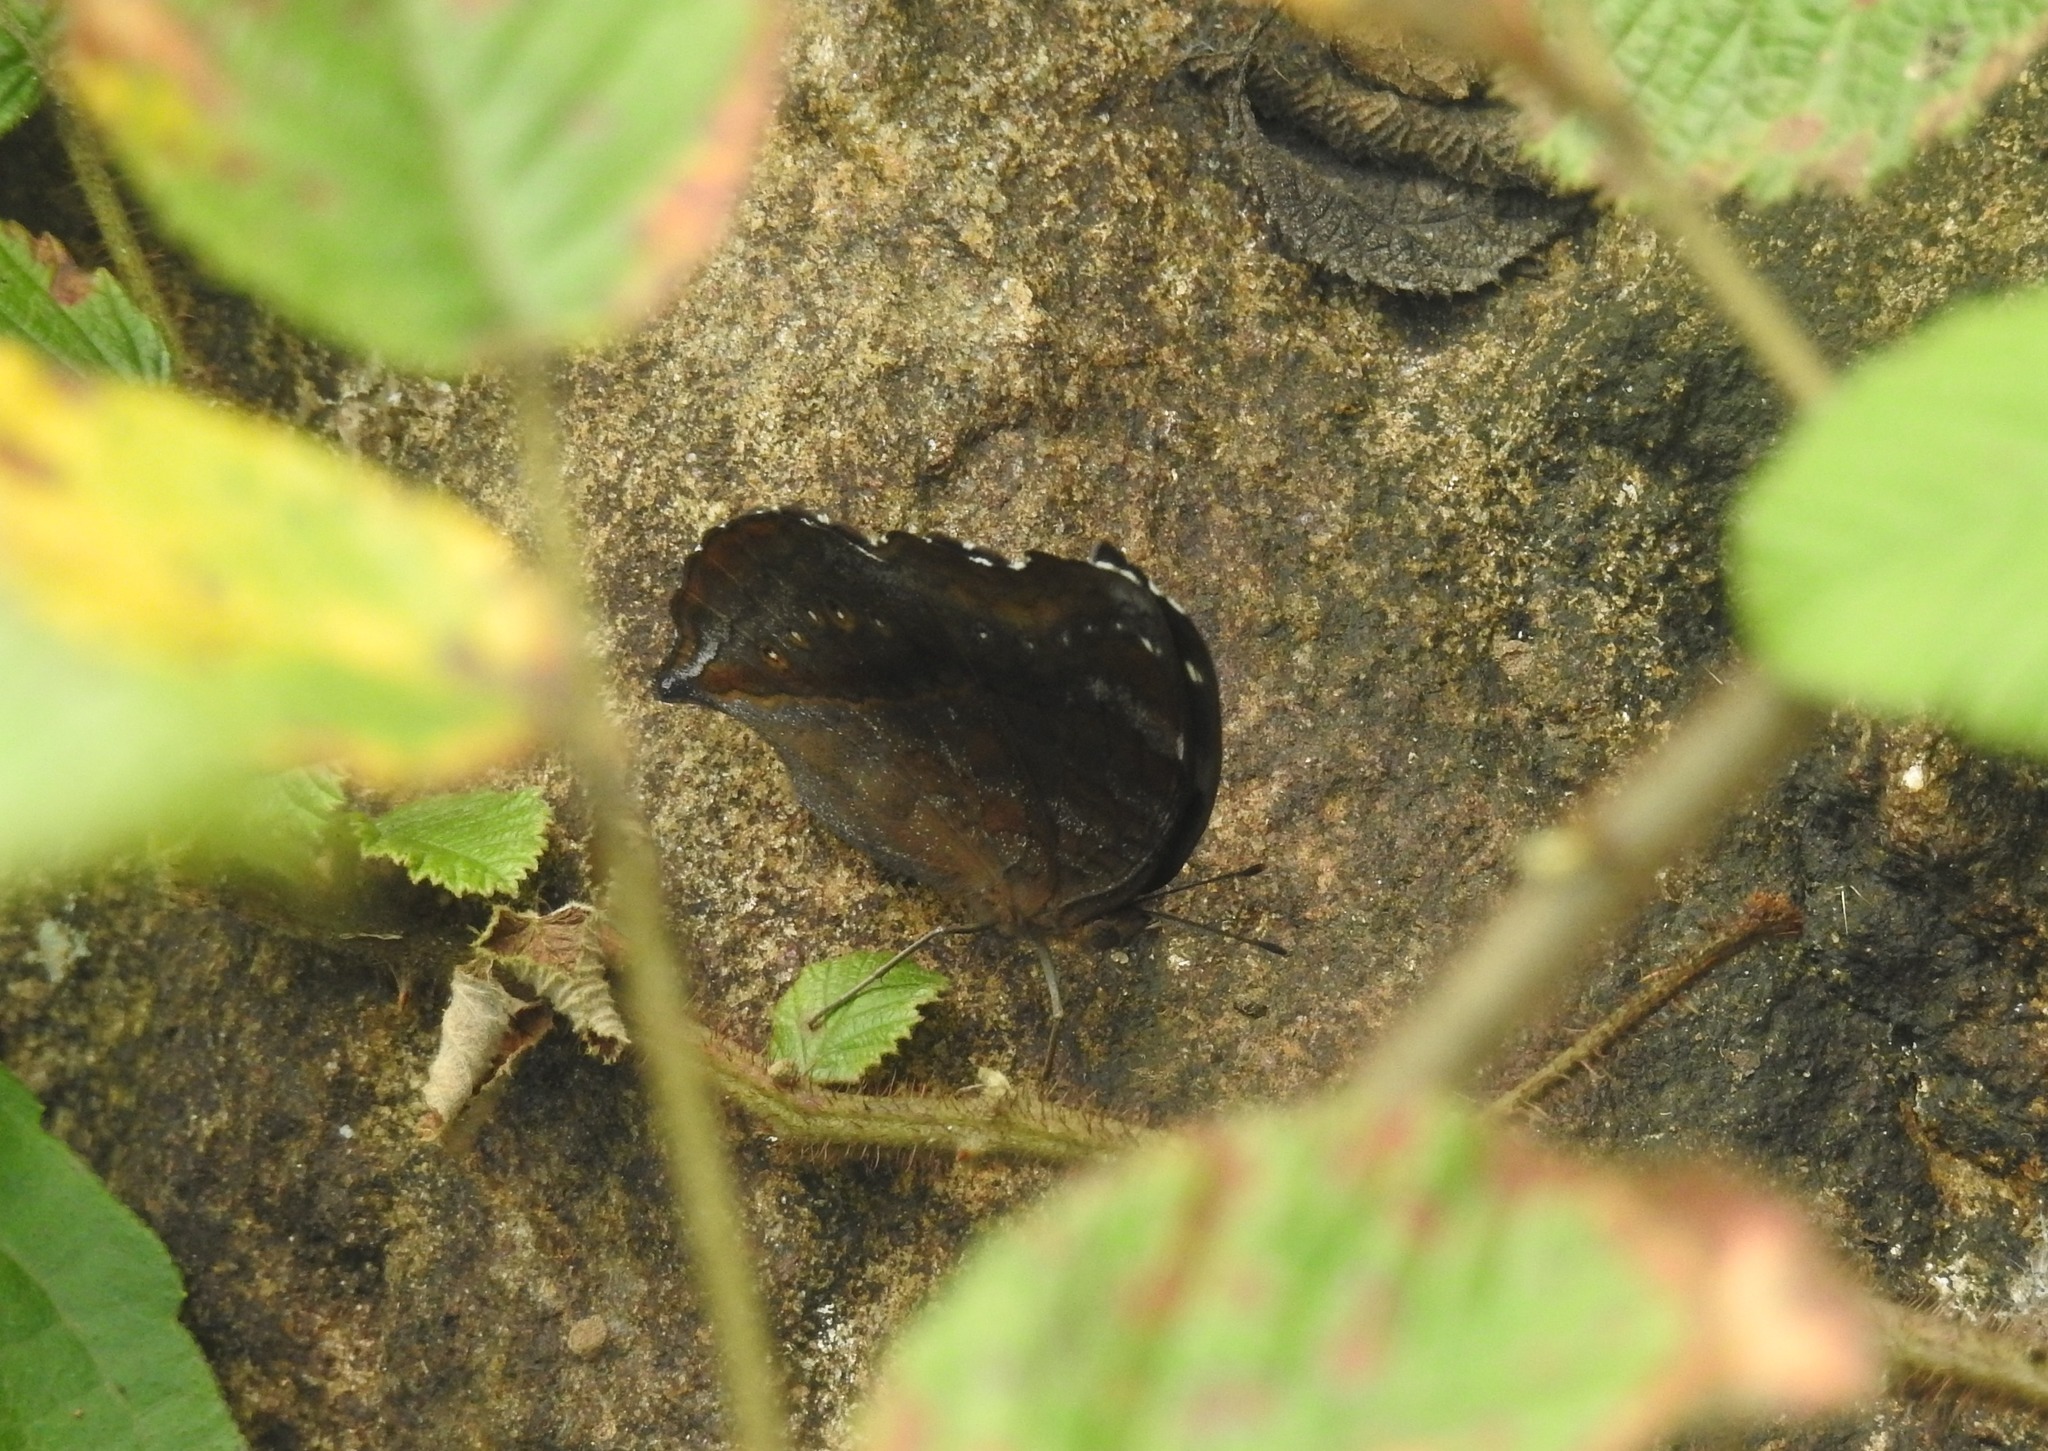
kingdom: Animalia
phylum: Arthropoda
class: Insecta
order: Lepidoptera
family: Nymphalidae
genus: Junonia
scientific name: Junonia iphita
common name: Chocolate pansy
